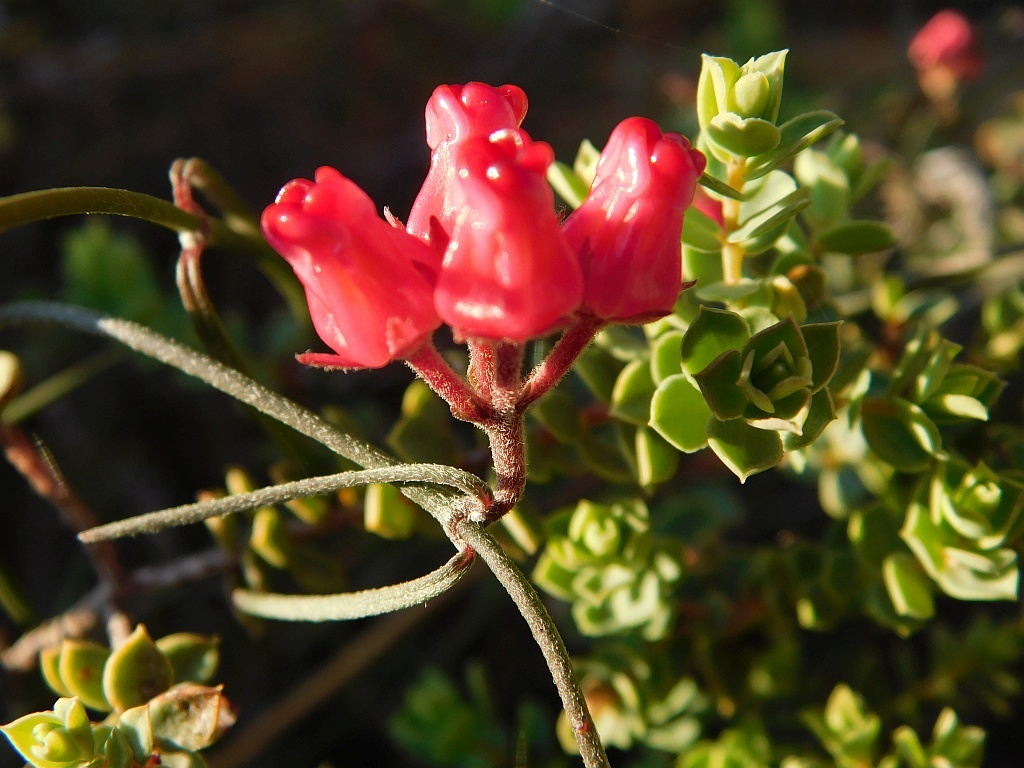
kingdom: Plantae
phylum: Tracheophyta
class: Magnoliopsida
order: Gentianales
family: Apocynaceae
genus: Microloma
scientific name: Microloma tenuifolium
